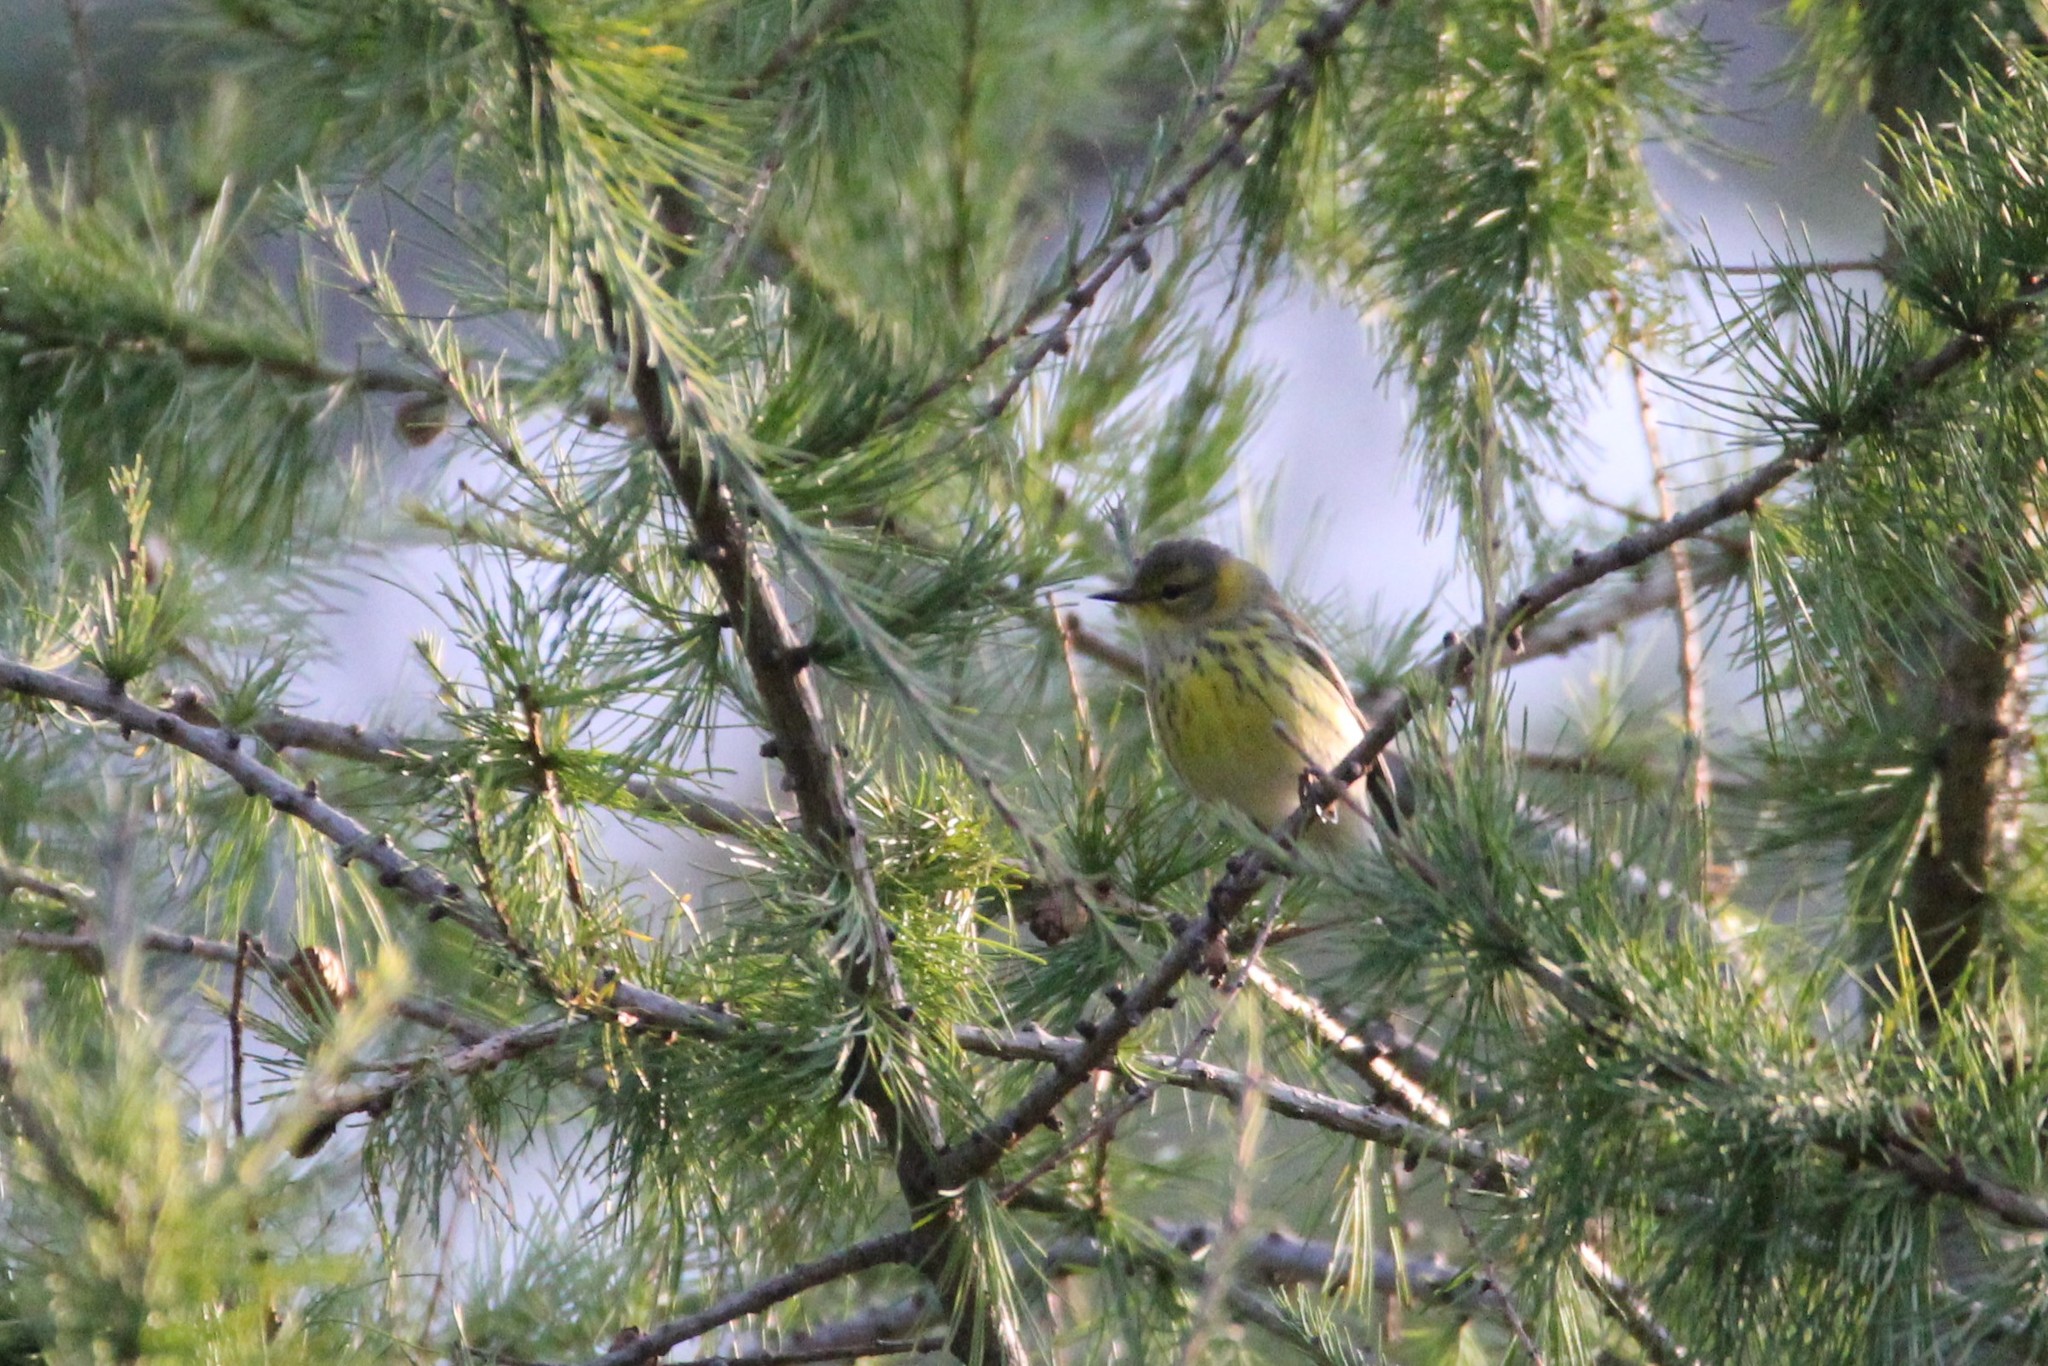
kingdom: Animalia
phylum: Chordata
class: Aves
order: Passeriformes
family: Parulidae
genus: Setophaga
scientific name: Setophaga tigrina
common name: Cape may warbler
